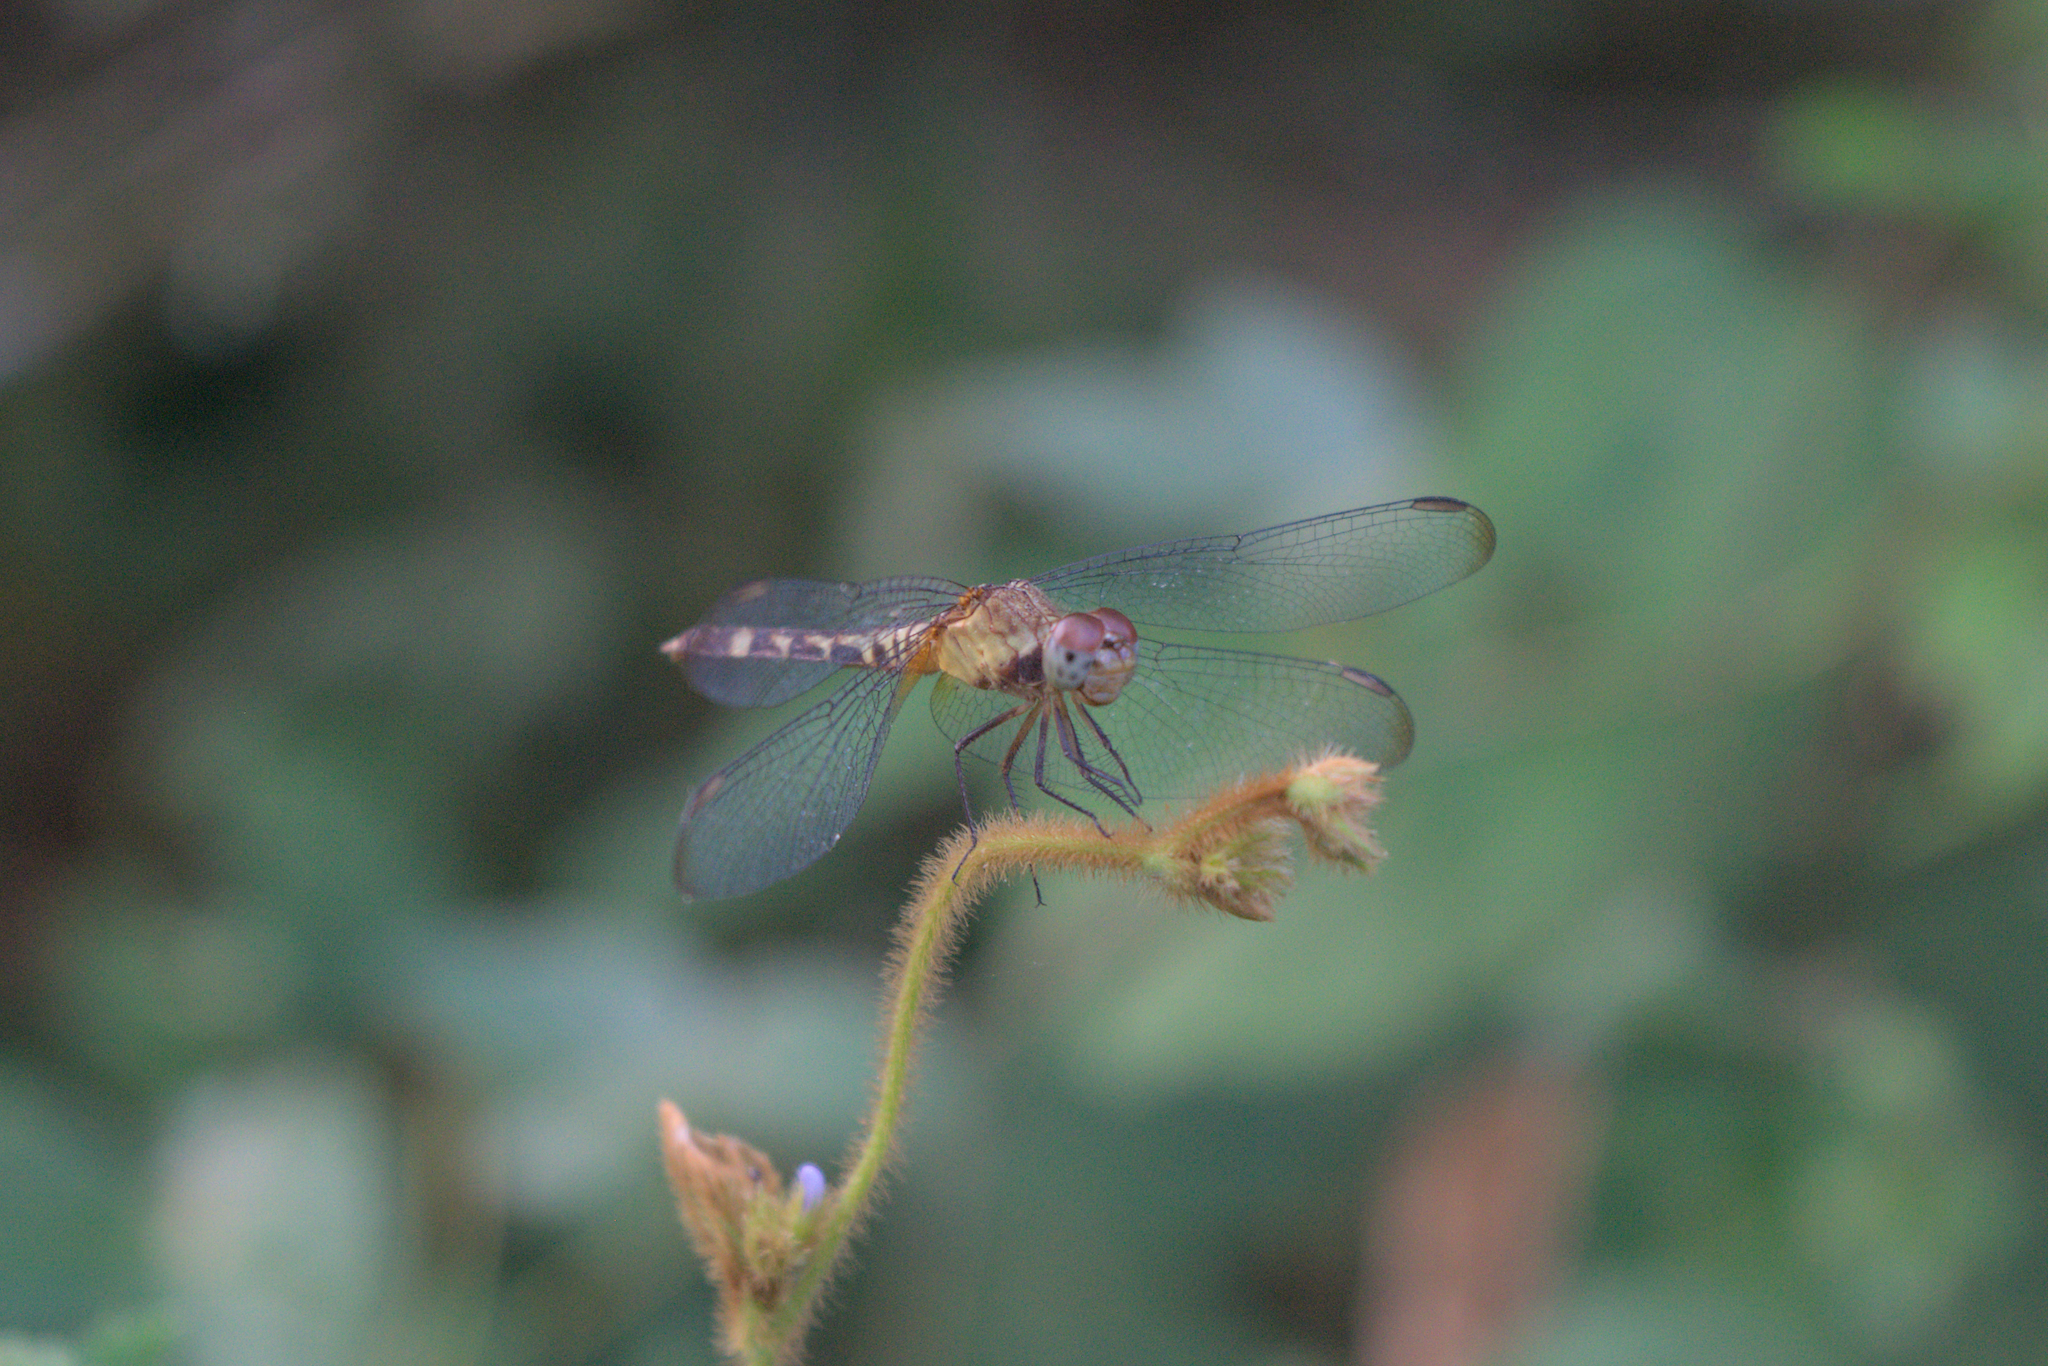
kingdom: Animalia
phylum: Arthropoda
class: Insecta
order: Odonata
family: Libellulidae
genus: Erythrodiplax
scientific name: Erythrodiplax andagoya
